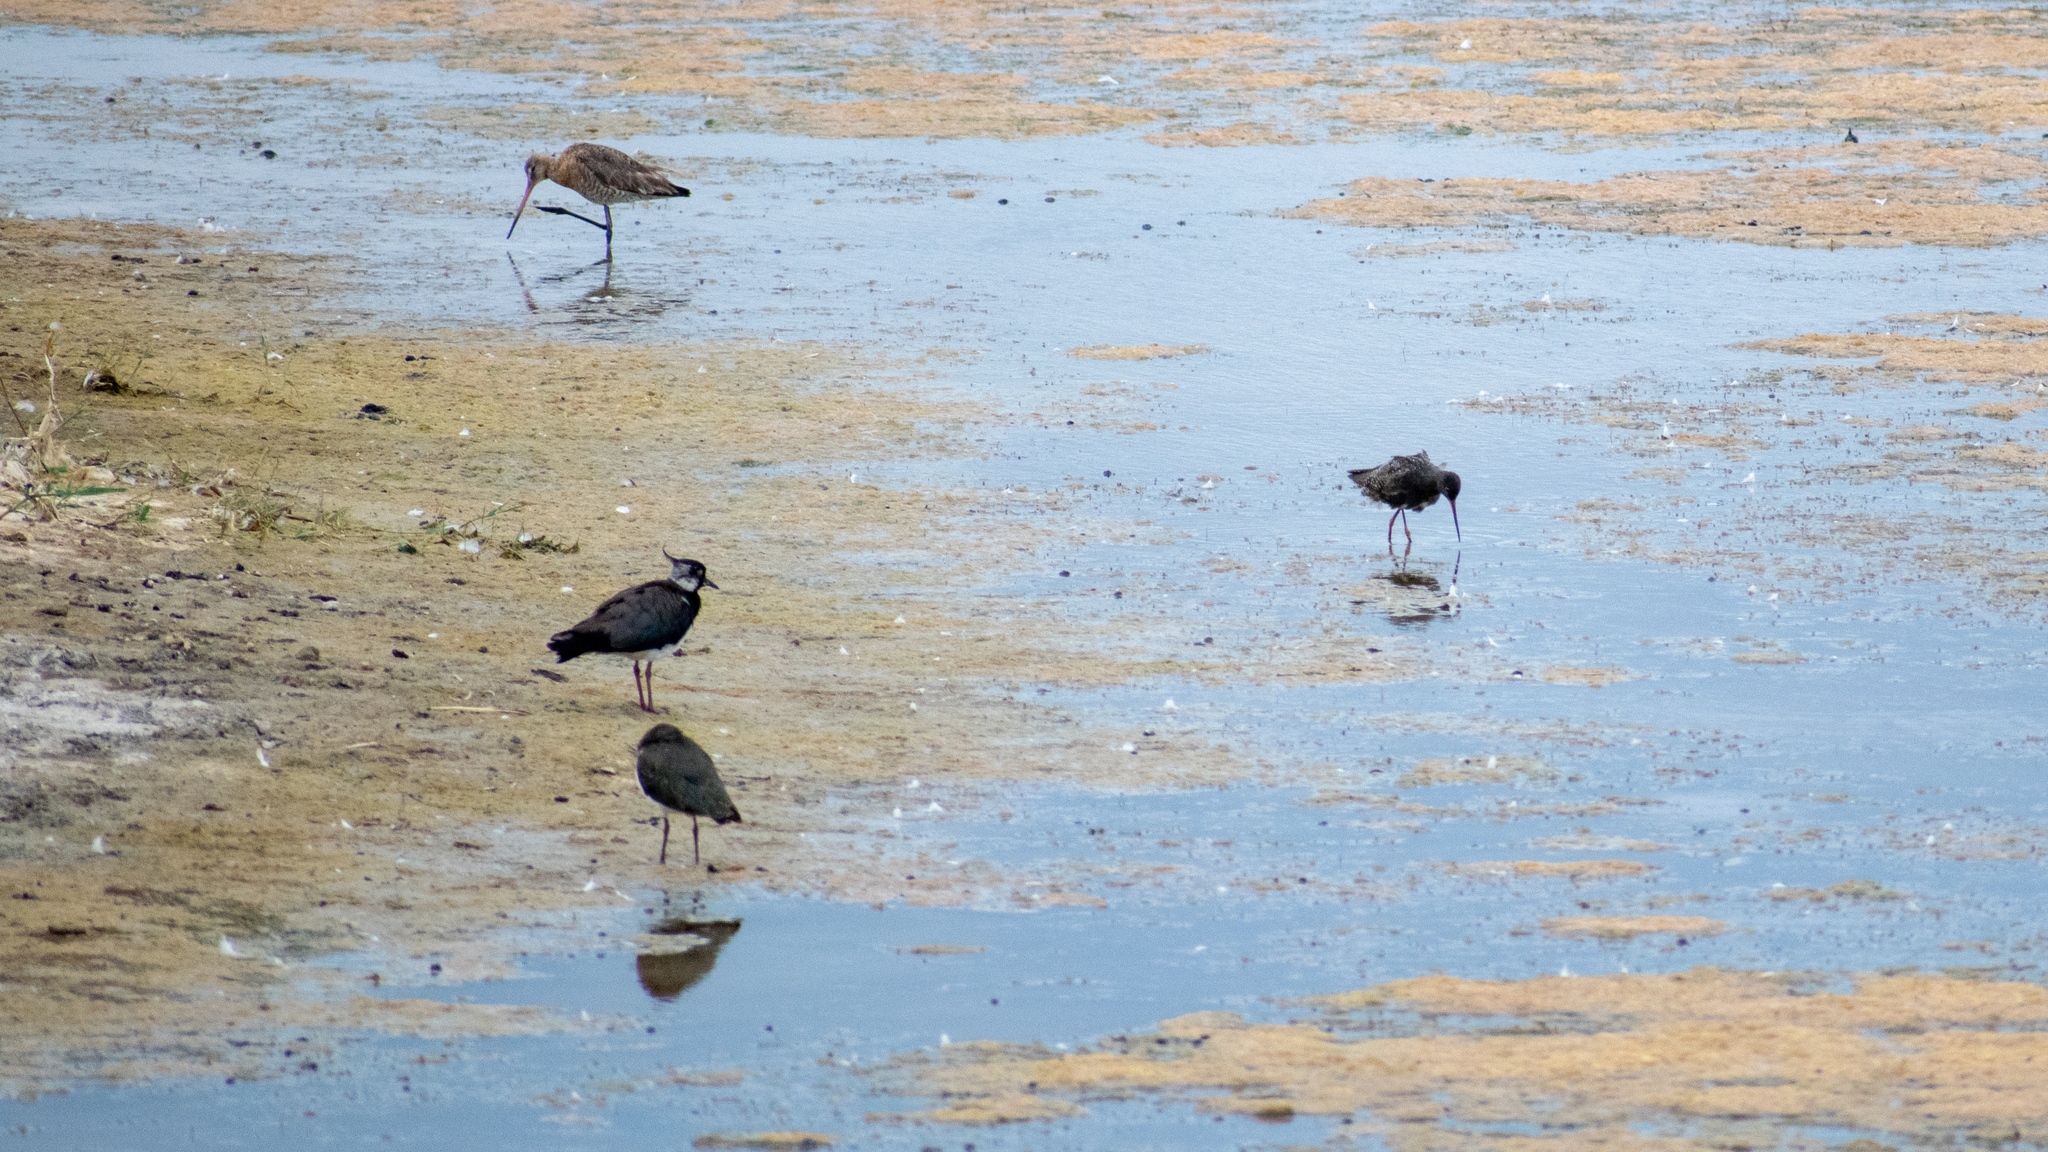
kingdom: Animalia
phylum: Chordata
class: Aves
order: Charadriiformes
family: Charadriidae
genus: Vanellus
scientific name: Vanellus vanellus
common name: Northern lapwing
